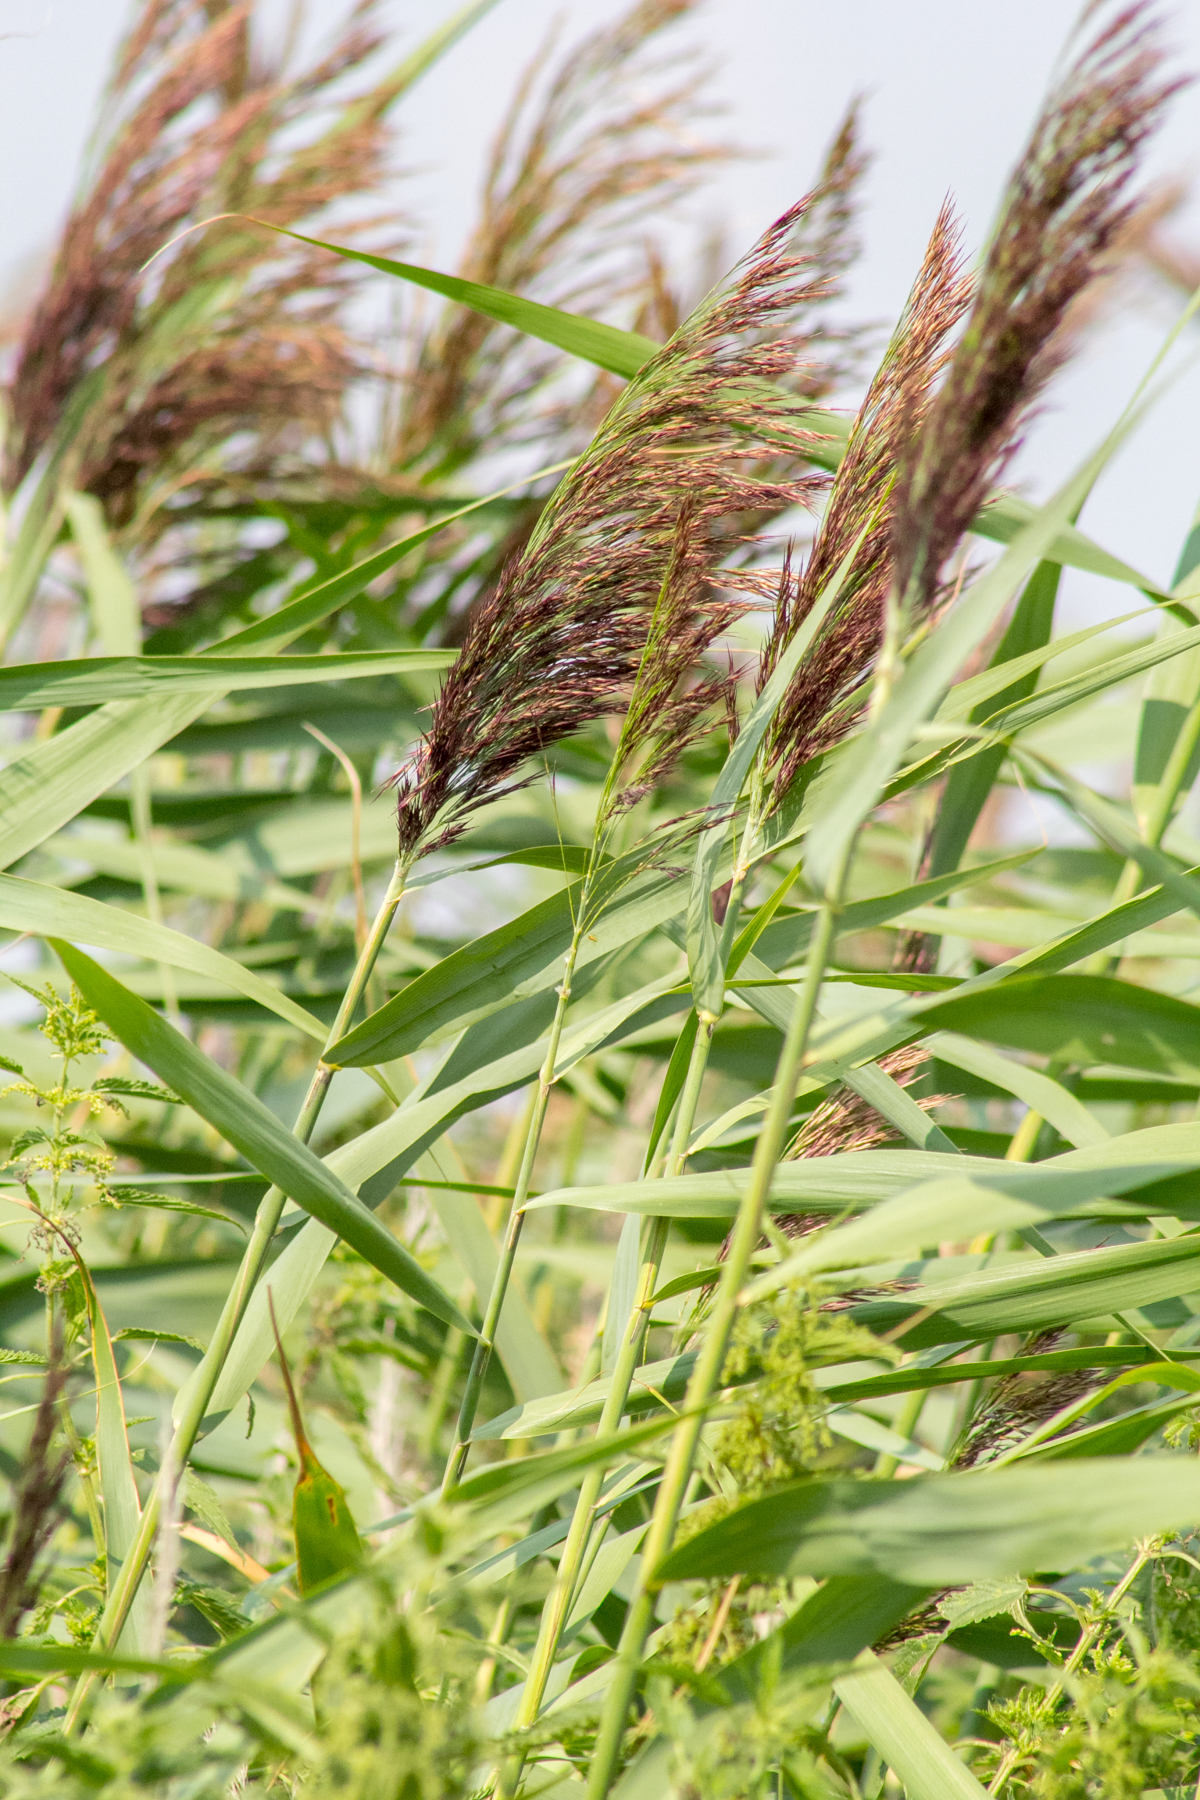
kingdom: Plantae
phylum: Tracheophyta
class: Liliopsida
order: Poales
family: Poaceae
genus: Phragmites
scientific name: Phragmites australis
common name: Common reed
